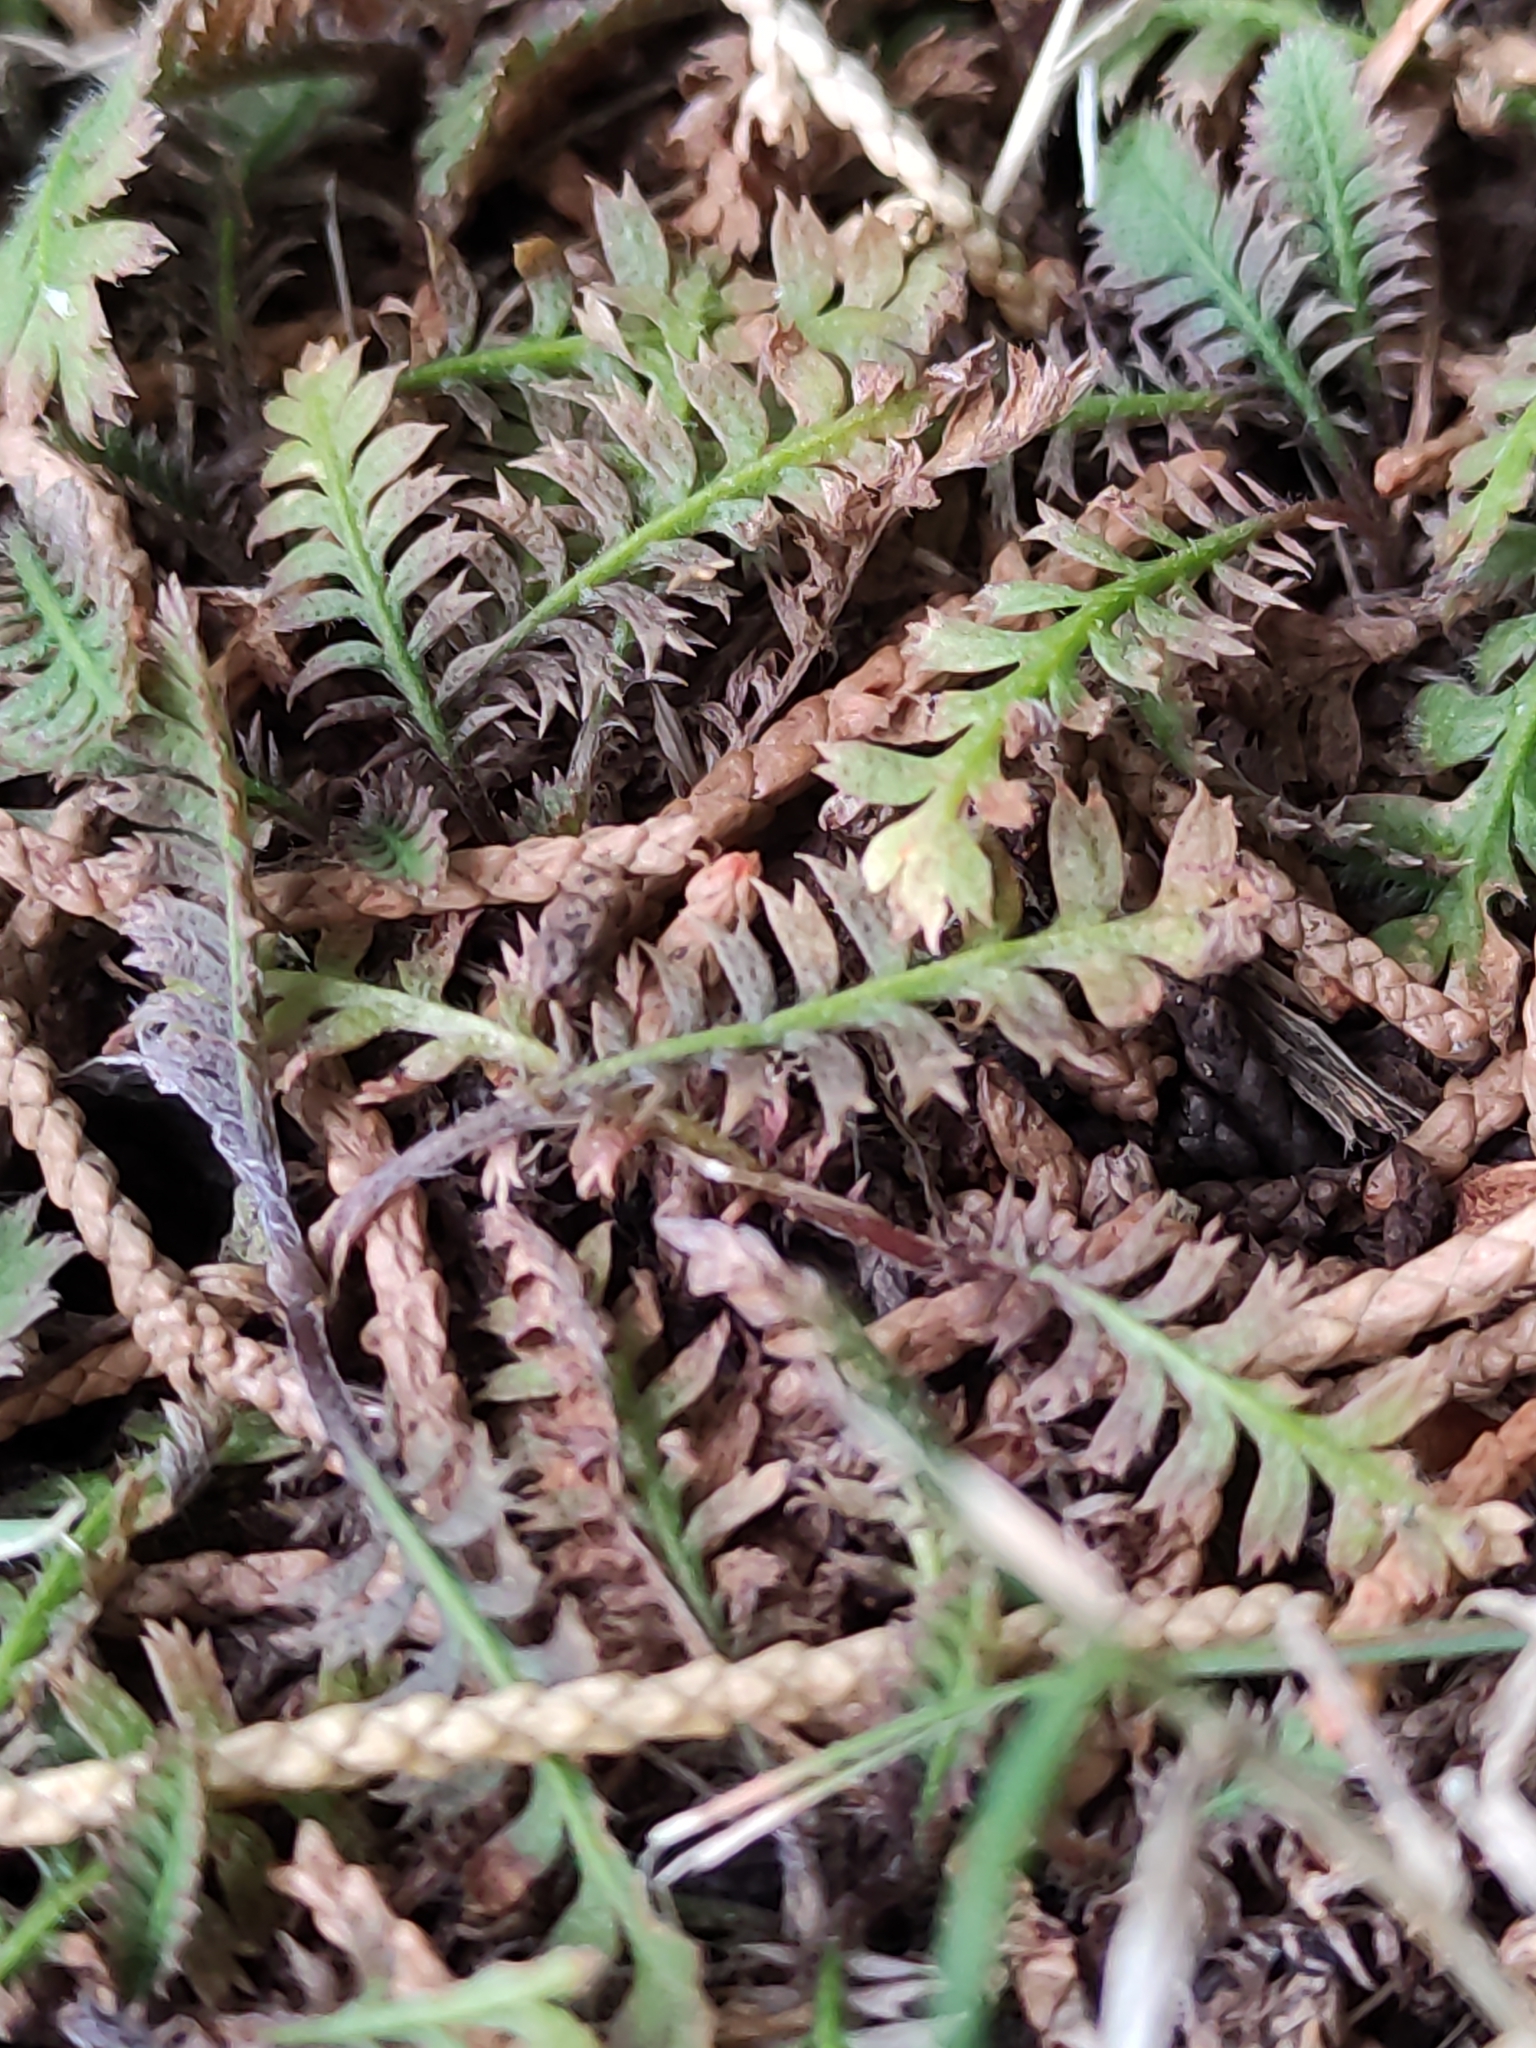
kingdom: Plantae
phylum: Tracheophyta
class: Magnoliopsida
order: Asterales
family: Asteraceae
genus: Leptinella
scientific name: Leptinella squalida
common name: New zealand brass-buttons
